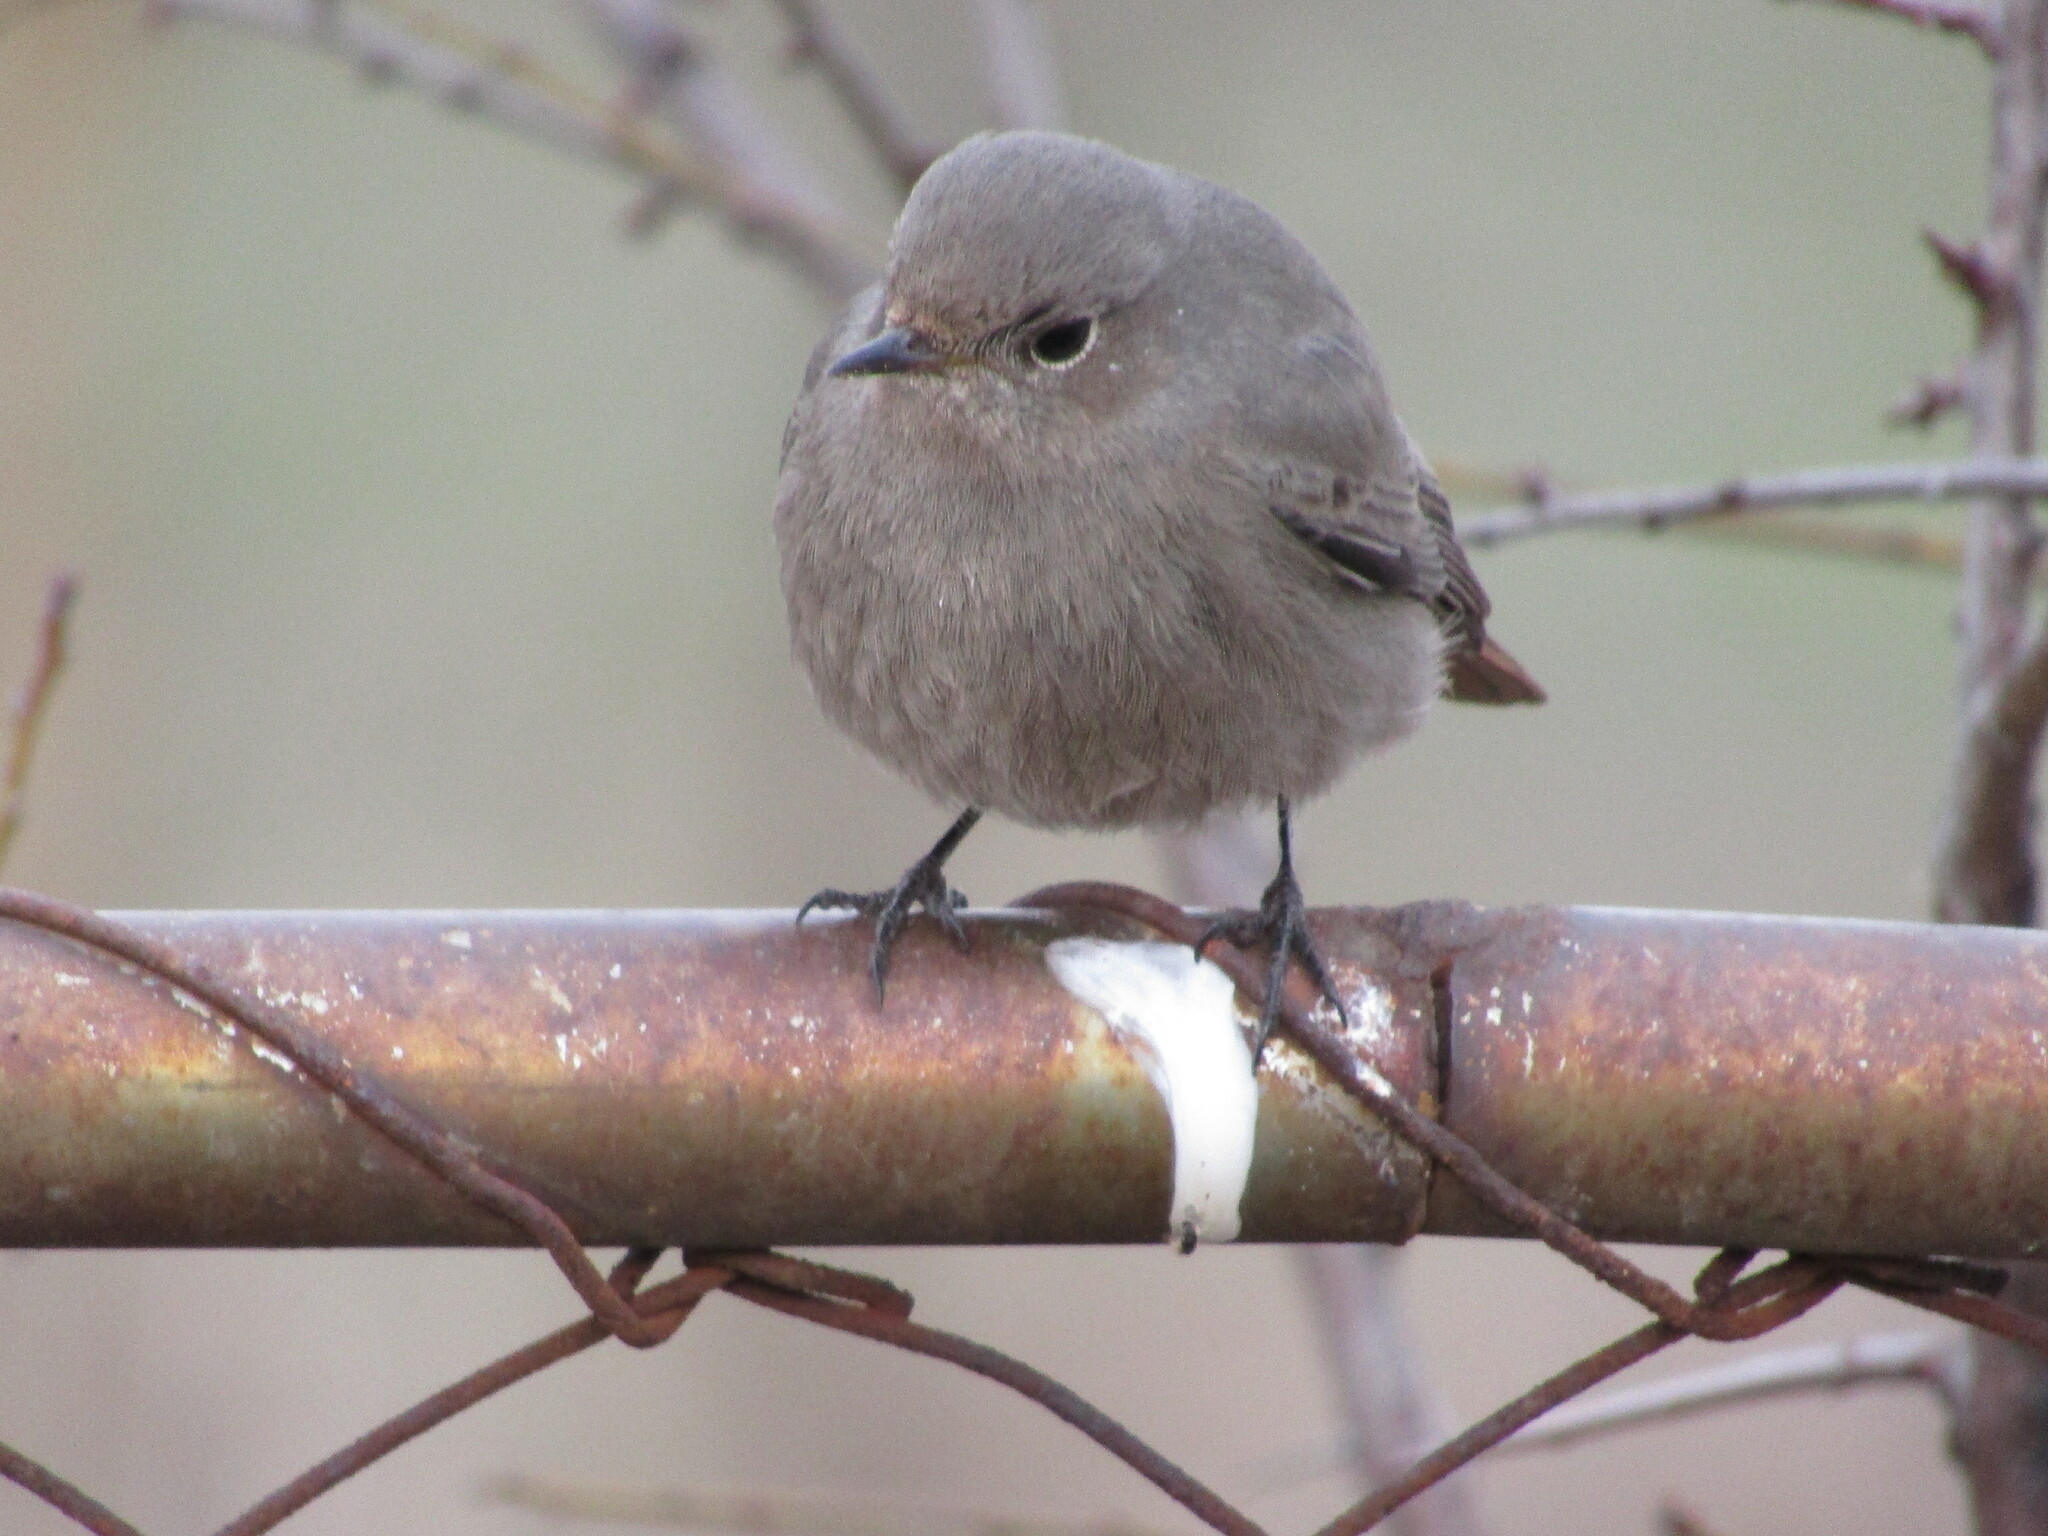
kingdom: Animalia
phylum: Chordata
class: Aves
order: Passeriformes
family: Muscicapidae
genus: Phoenicurus
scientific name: Phoenicurus ochruros
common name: Black redstart
